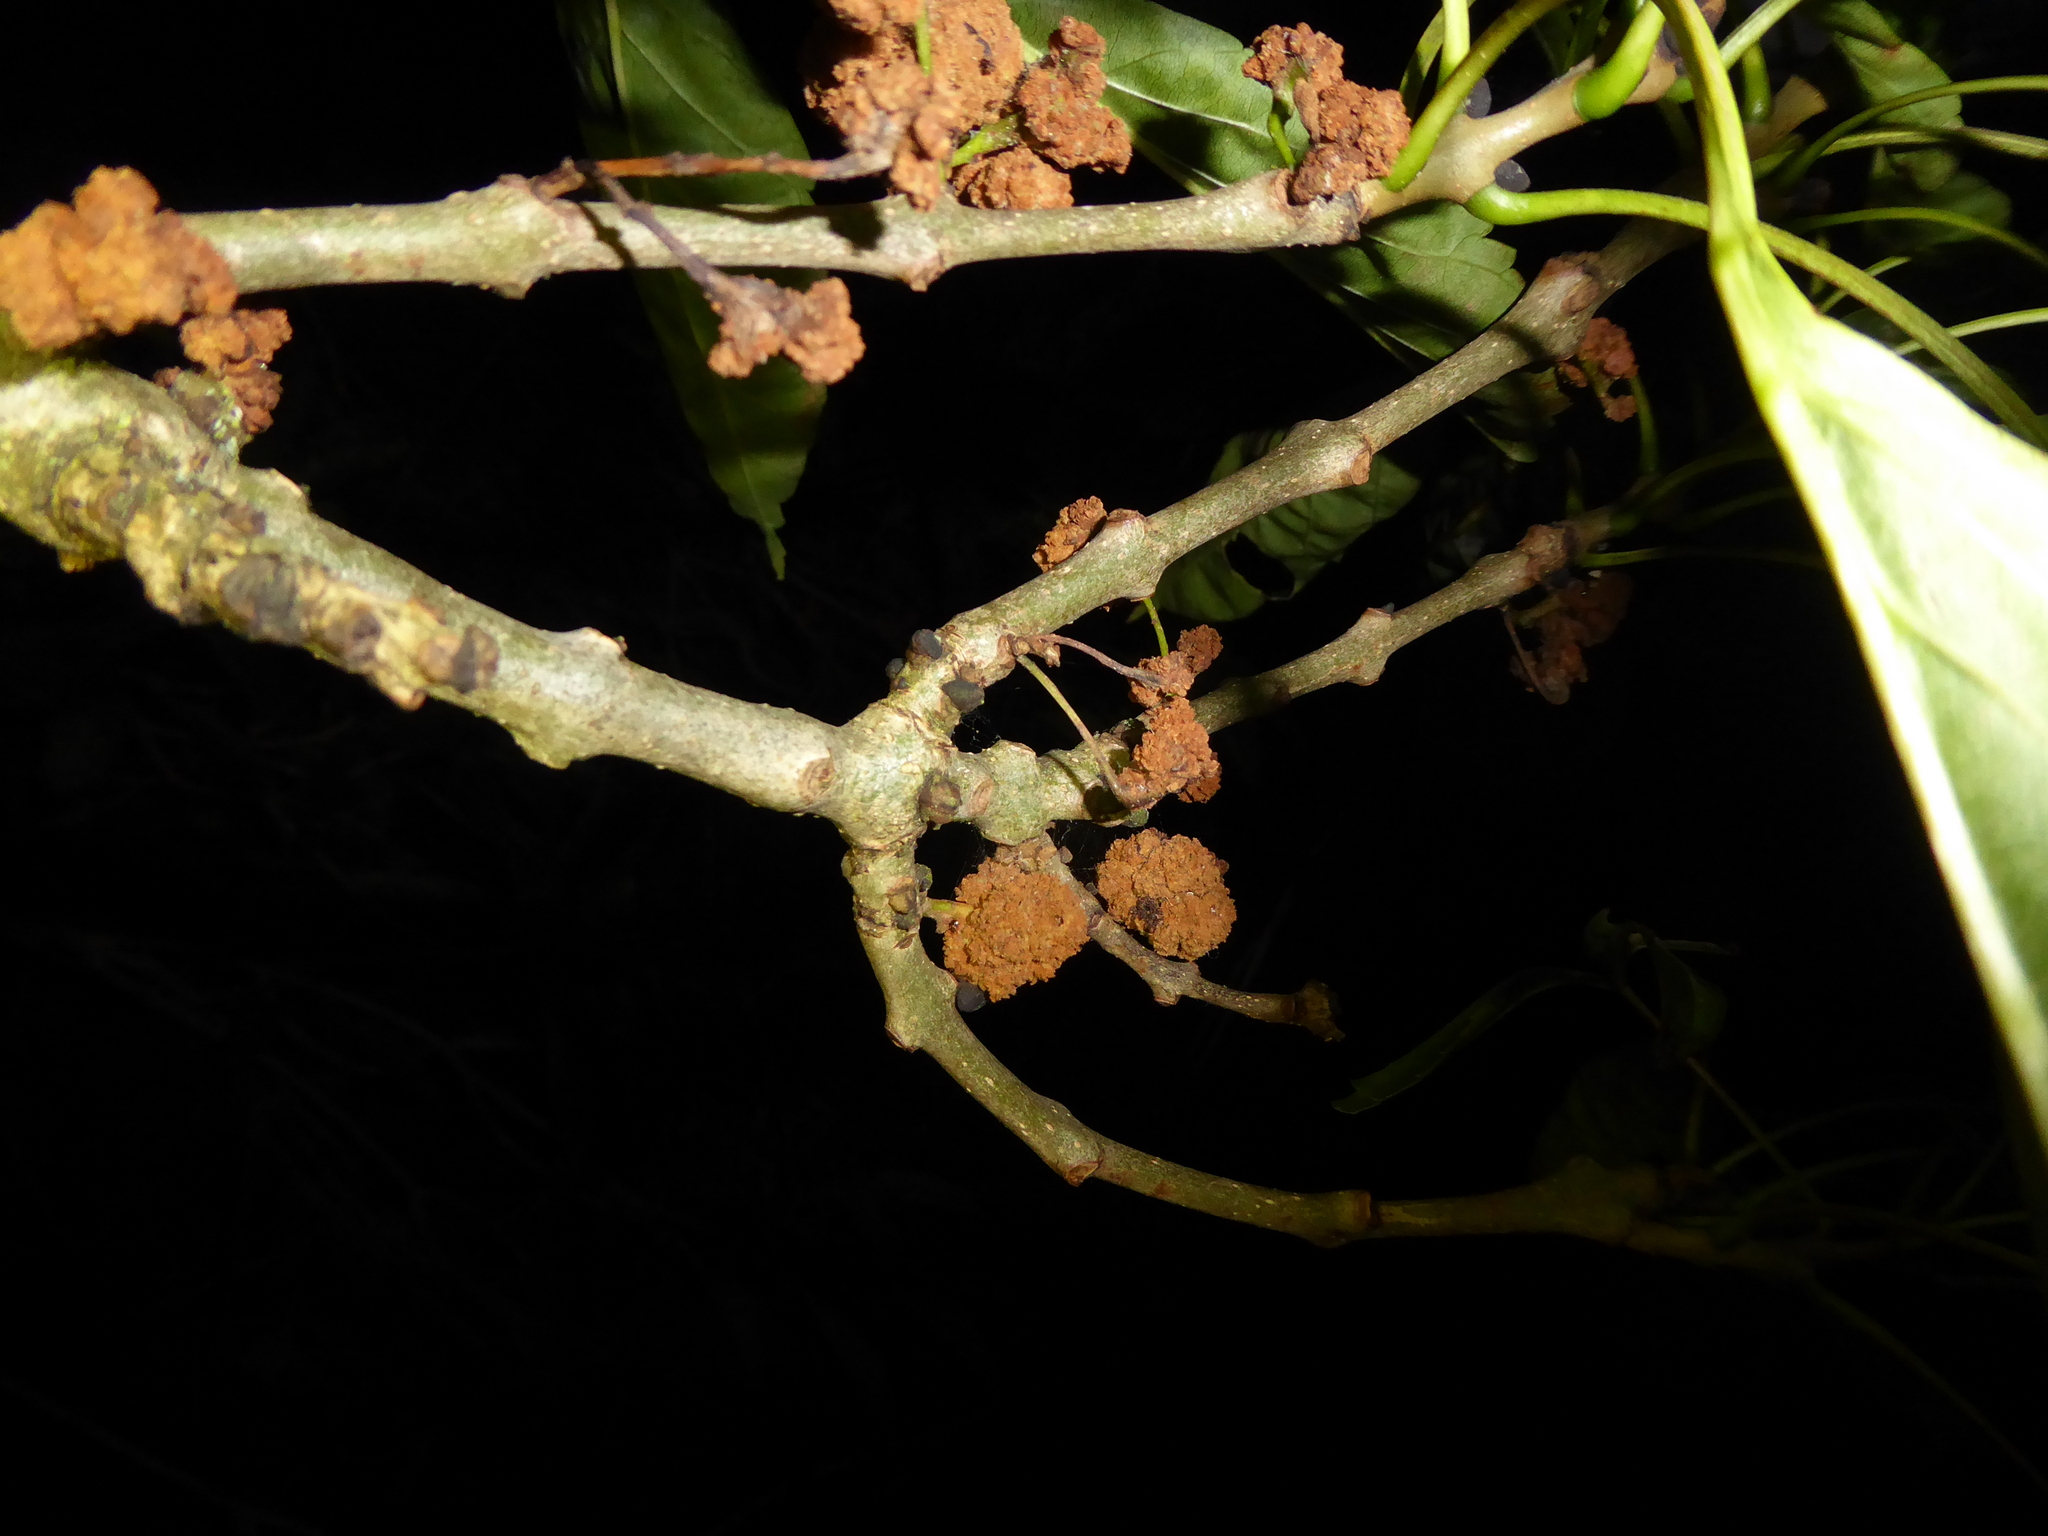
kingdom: Animalia
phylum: Arthropoda
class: Arachnida
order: Trombidiformes
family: Eriophyidae
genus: Aceria
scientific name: Aceria fraxinivora
